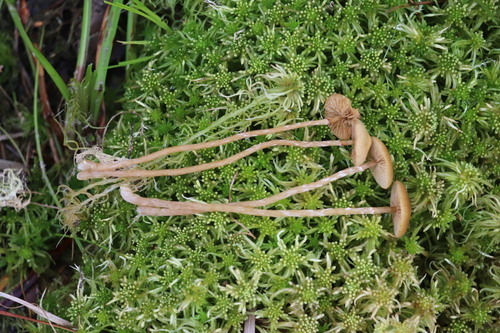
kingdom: Fungi
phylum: Basidiomycota
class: Agaricomycetes
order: Agaricales
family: Hymenogastraceae
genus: Galerina
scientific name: Galerina paludosa
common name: Bog bell
